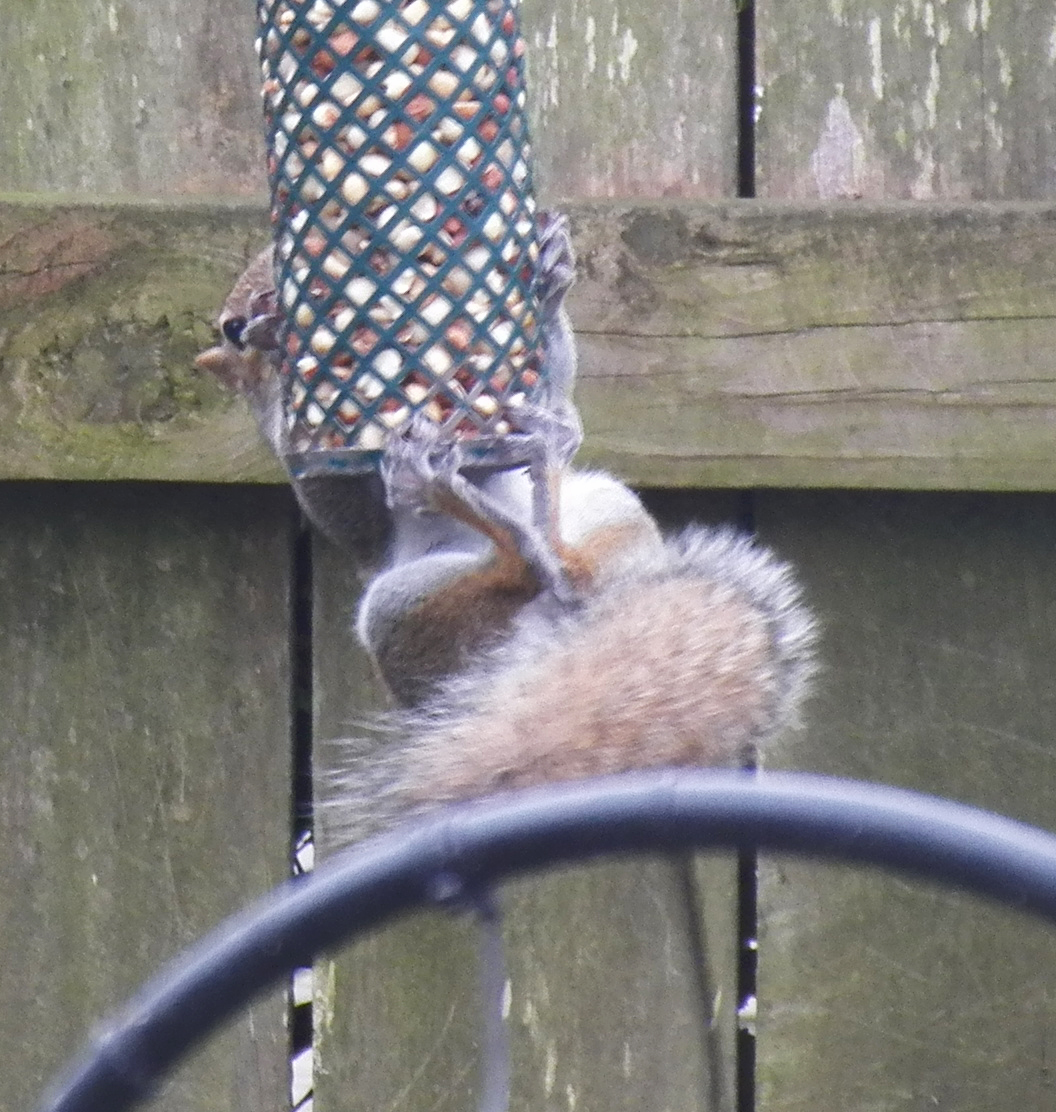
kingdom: Animalia
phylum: Chordata
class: Mammalia
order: Rodentia
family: Sciuridae
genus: Sciurus
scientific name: Sciurus carolinensis
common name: Eastern gray squirrel
